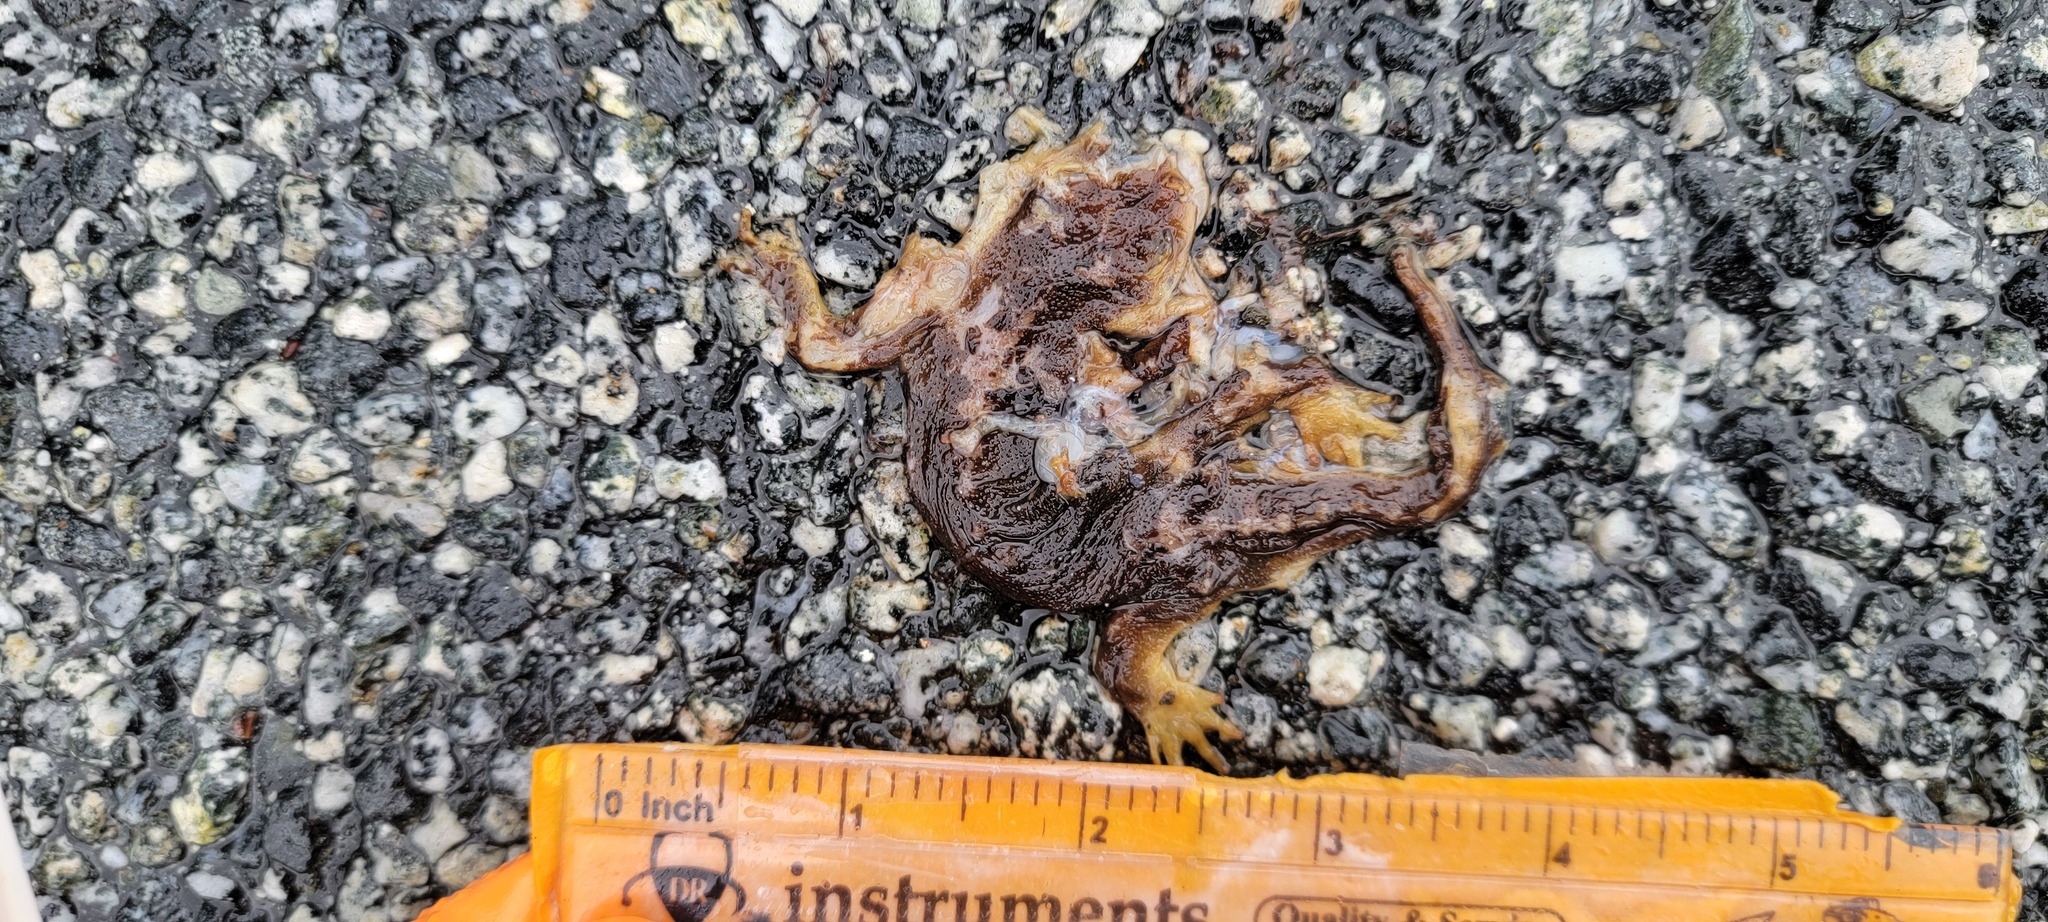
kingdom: Animalia
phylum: Chordata
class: Amphibia
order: Caudata
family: Salamandridae
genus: Taricha
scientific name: Taricha
